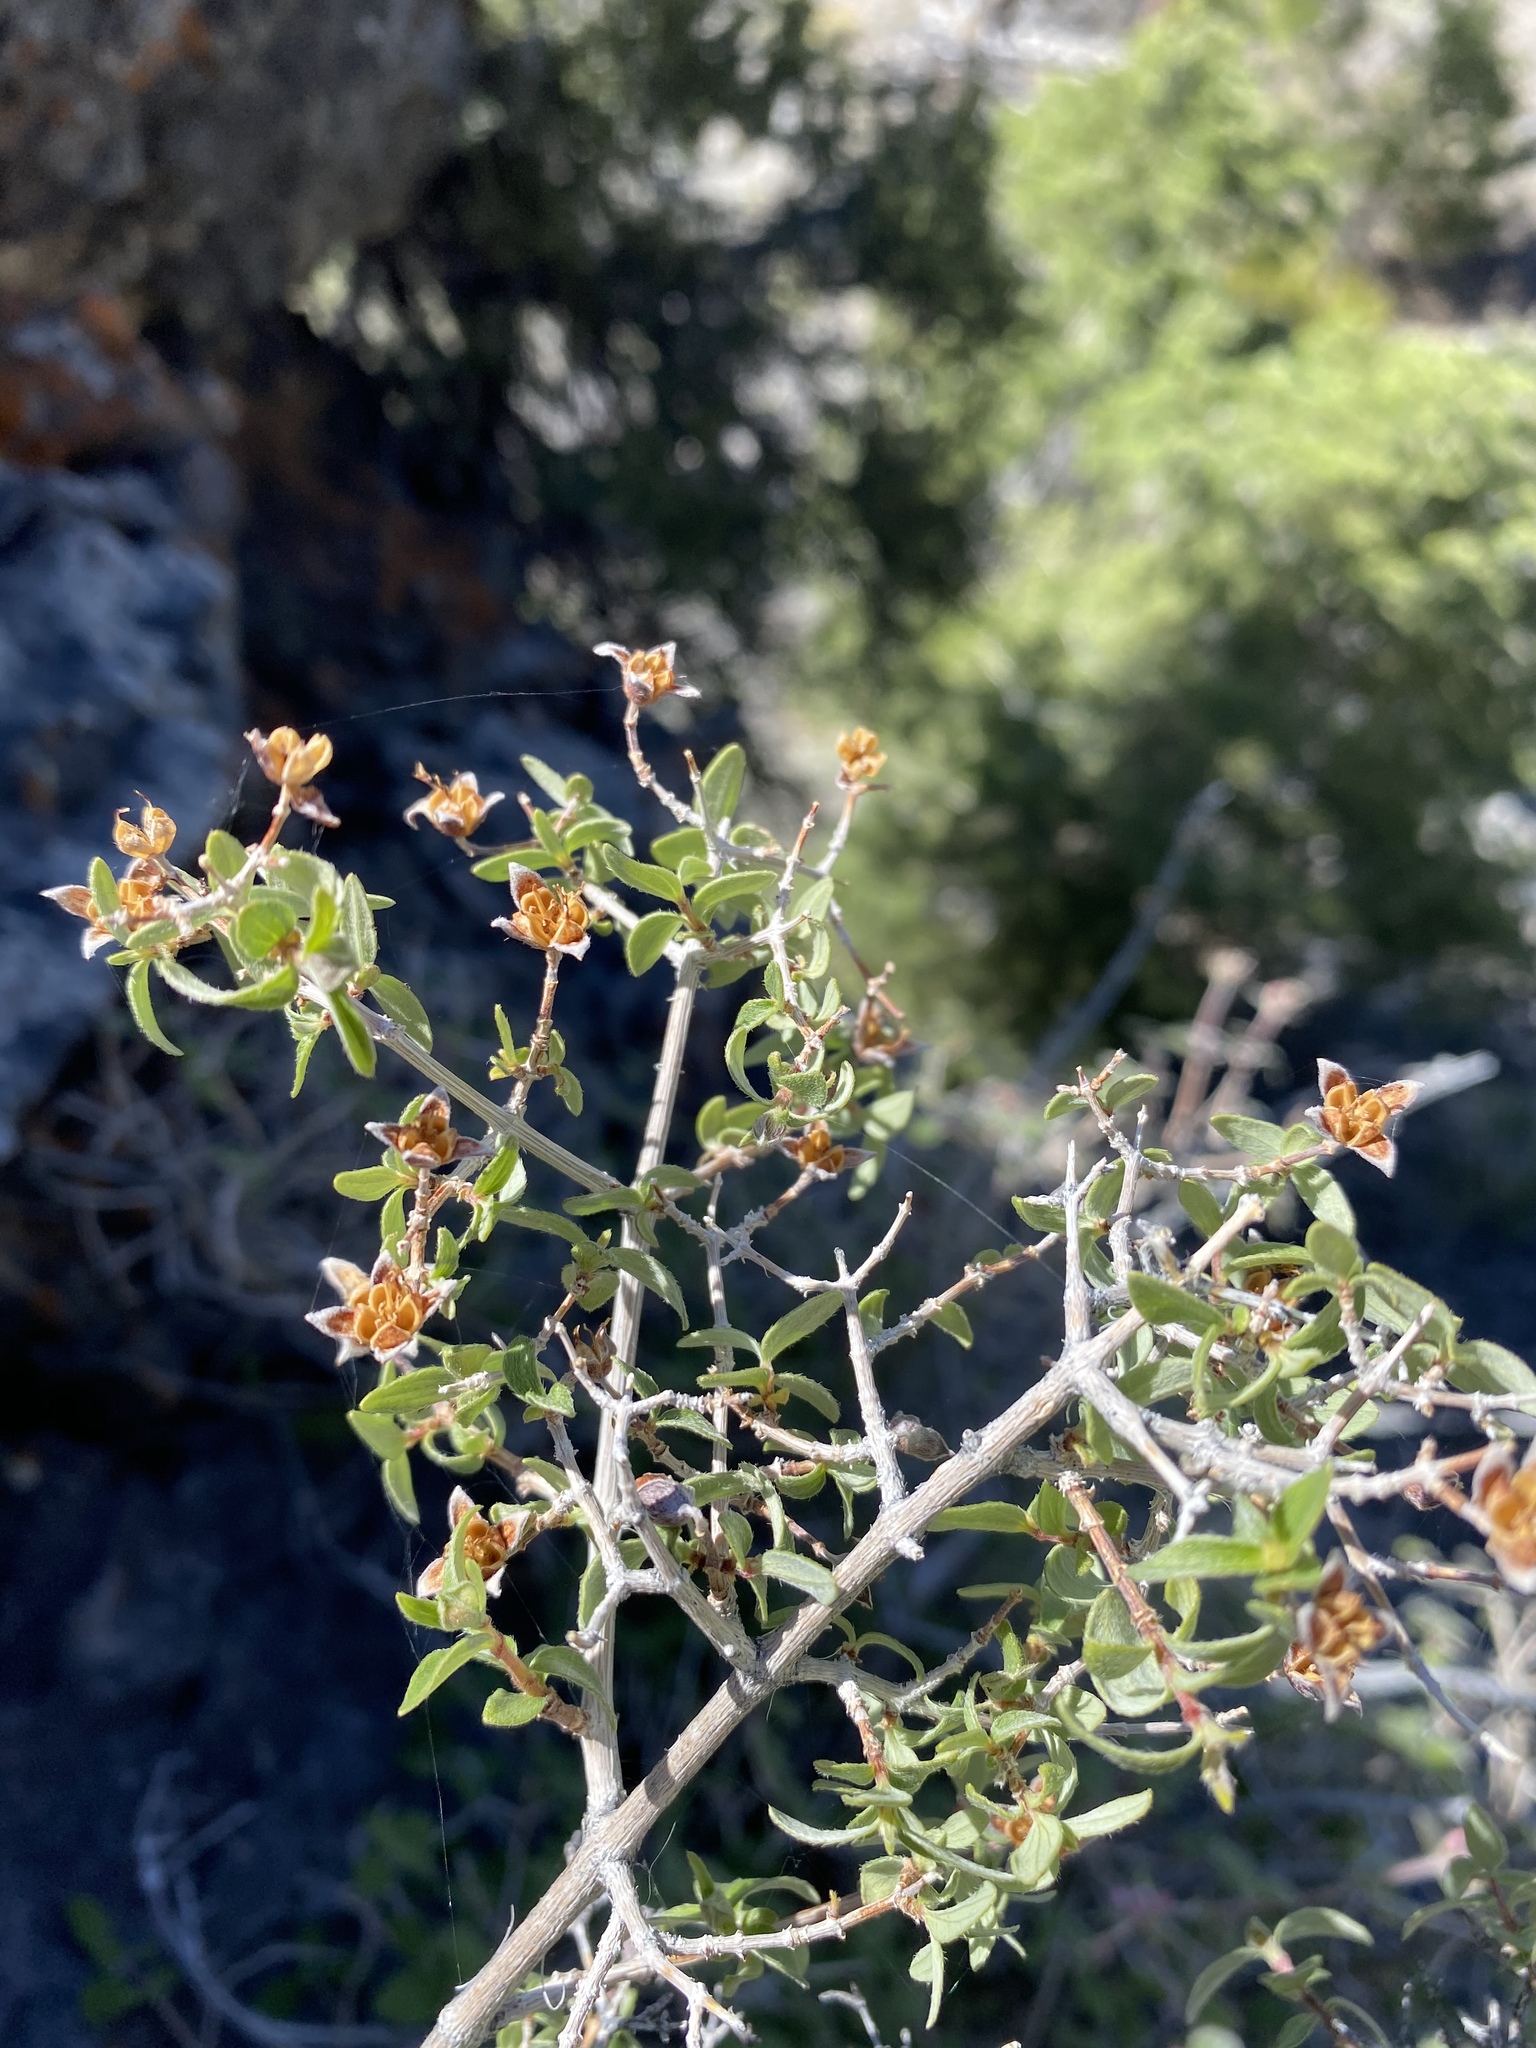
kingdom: Plantae
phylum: Tracheophyta
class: Magnoliopsida
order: Cornales
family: Hydrangeaceae
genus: Philadelphus
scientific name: Philadelphus microphyllus
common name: Desert mock orange
